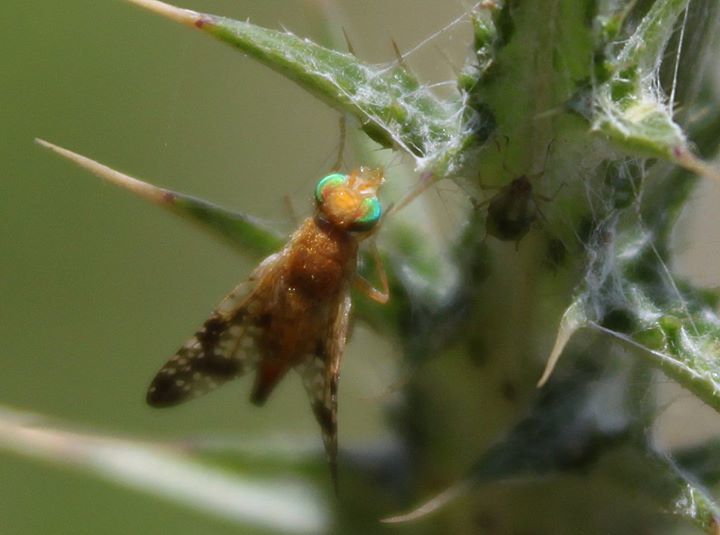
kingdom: Animalia
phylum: Arthropoda
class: Insecta
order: Diptera
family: Tephritidae
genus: Xyphosia
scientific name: Xyphosia miliaria
